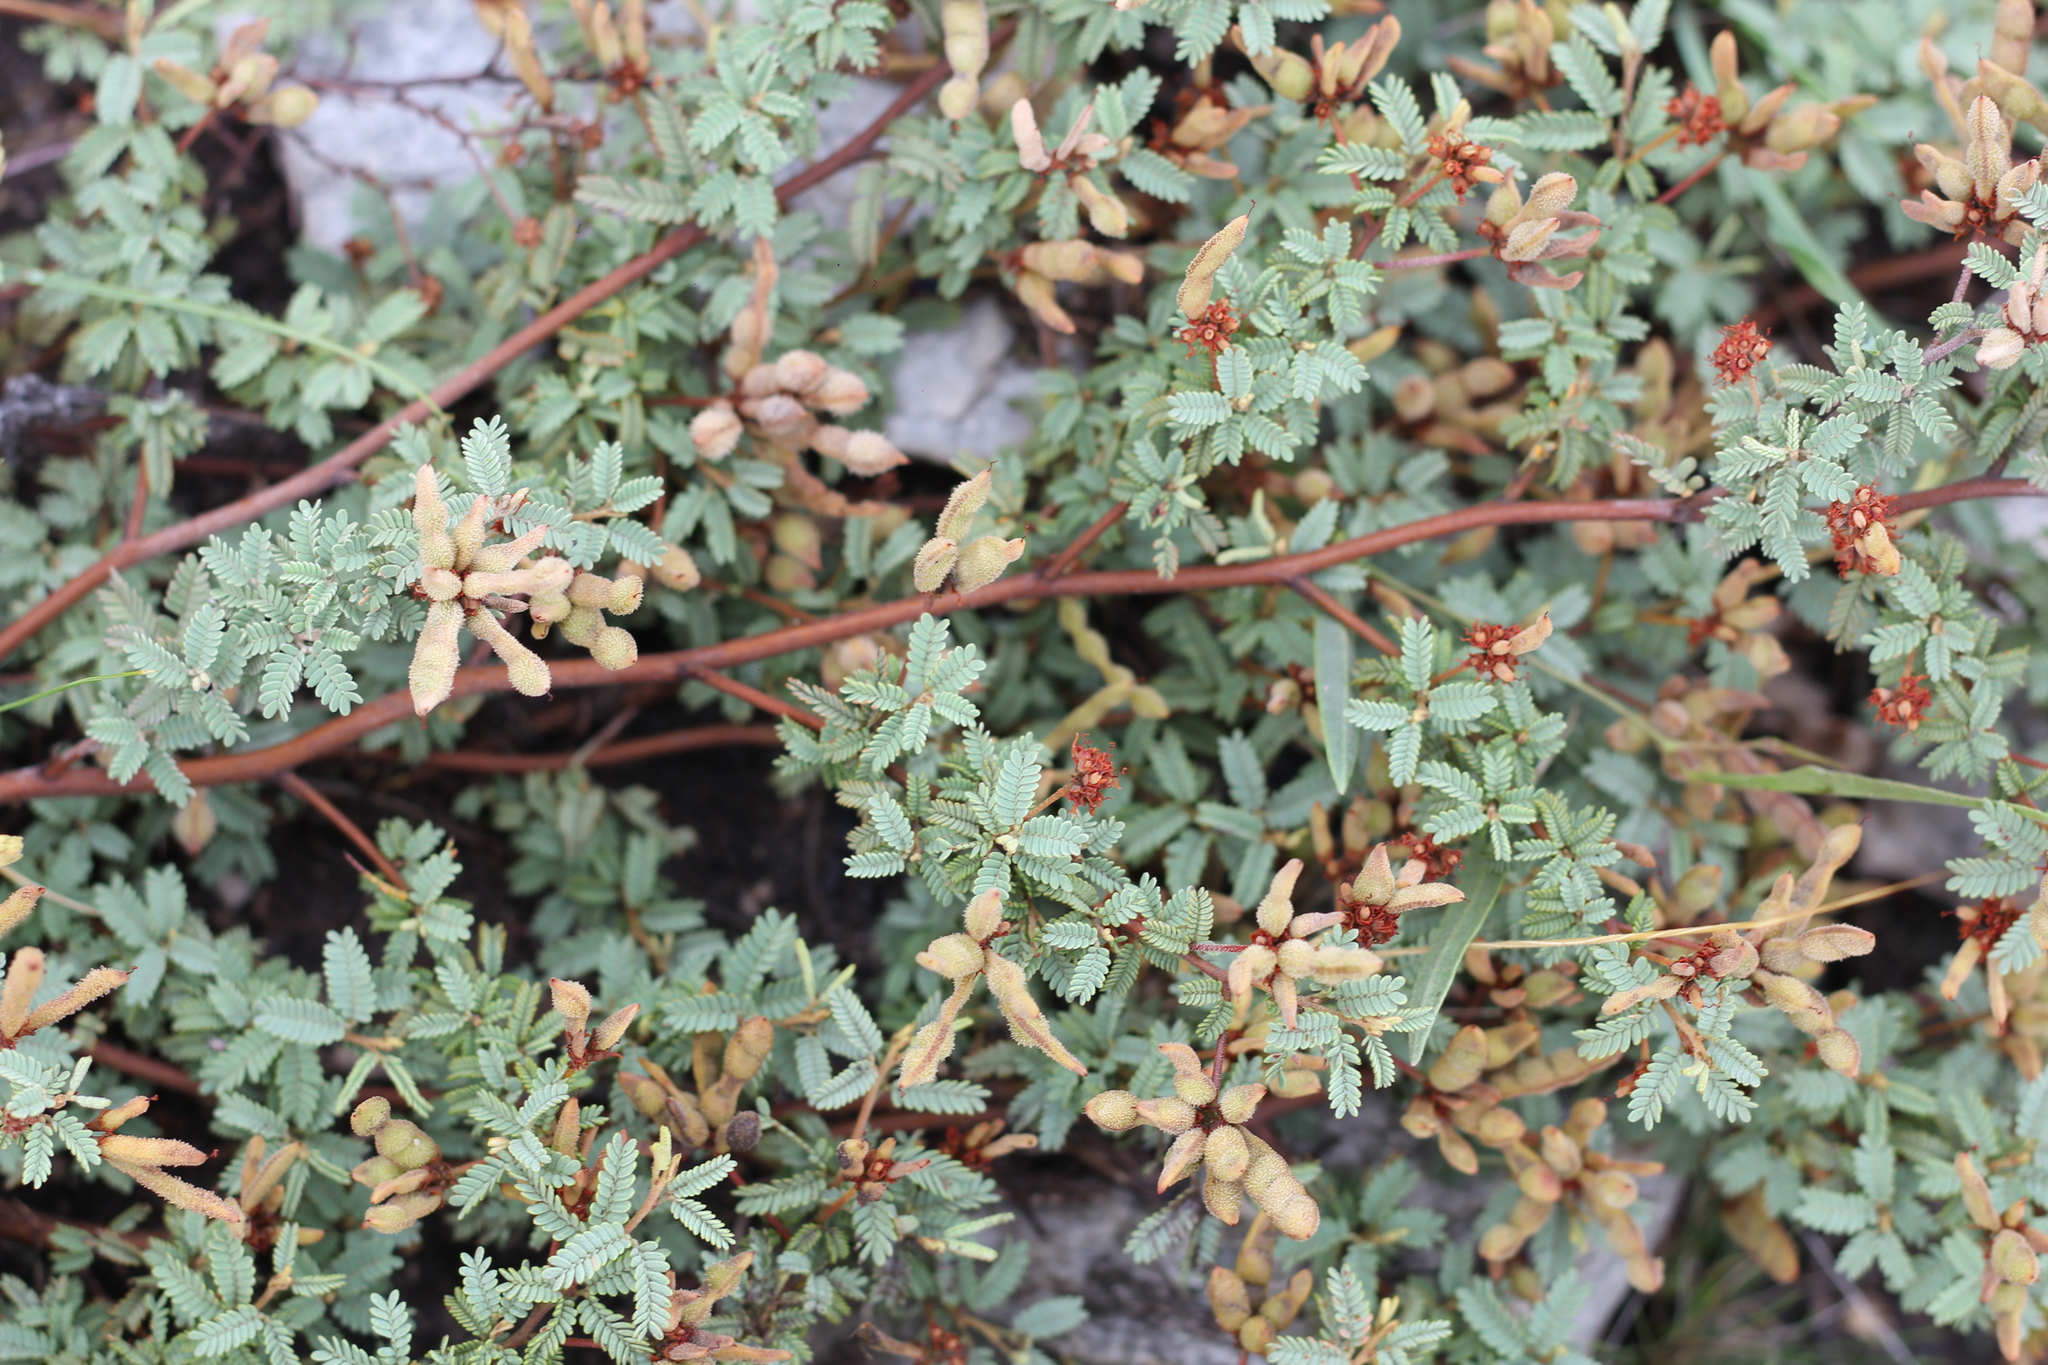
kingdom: Plantae
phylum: Tracheophyta
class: Magnoliopsida
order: Fabales
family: Fabaceae
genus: Mimosa
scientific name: Mimosa rocae
